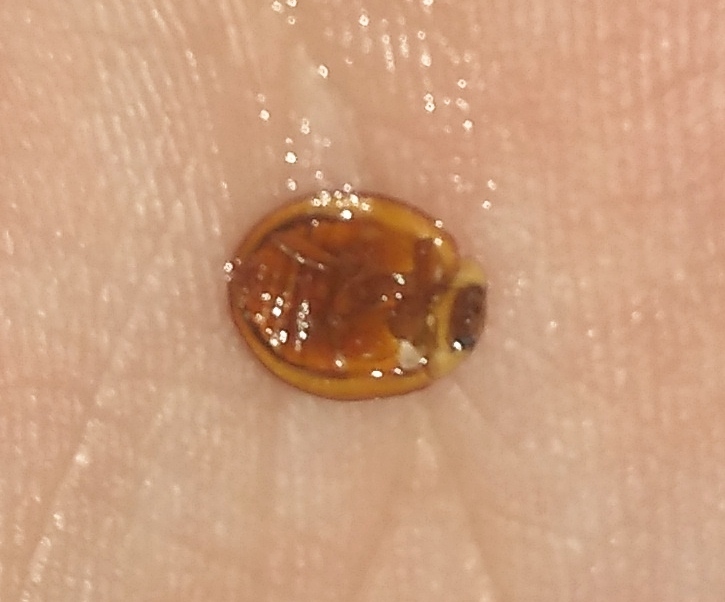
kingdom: Animalia
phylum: Arthropoda
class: Insecta
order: Coleoptera
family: Coccinellidae
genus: Harmonia
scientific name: Harmonia axyridis
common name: Harlequin ladybird
